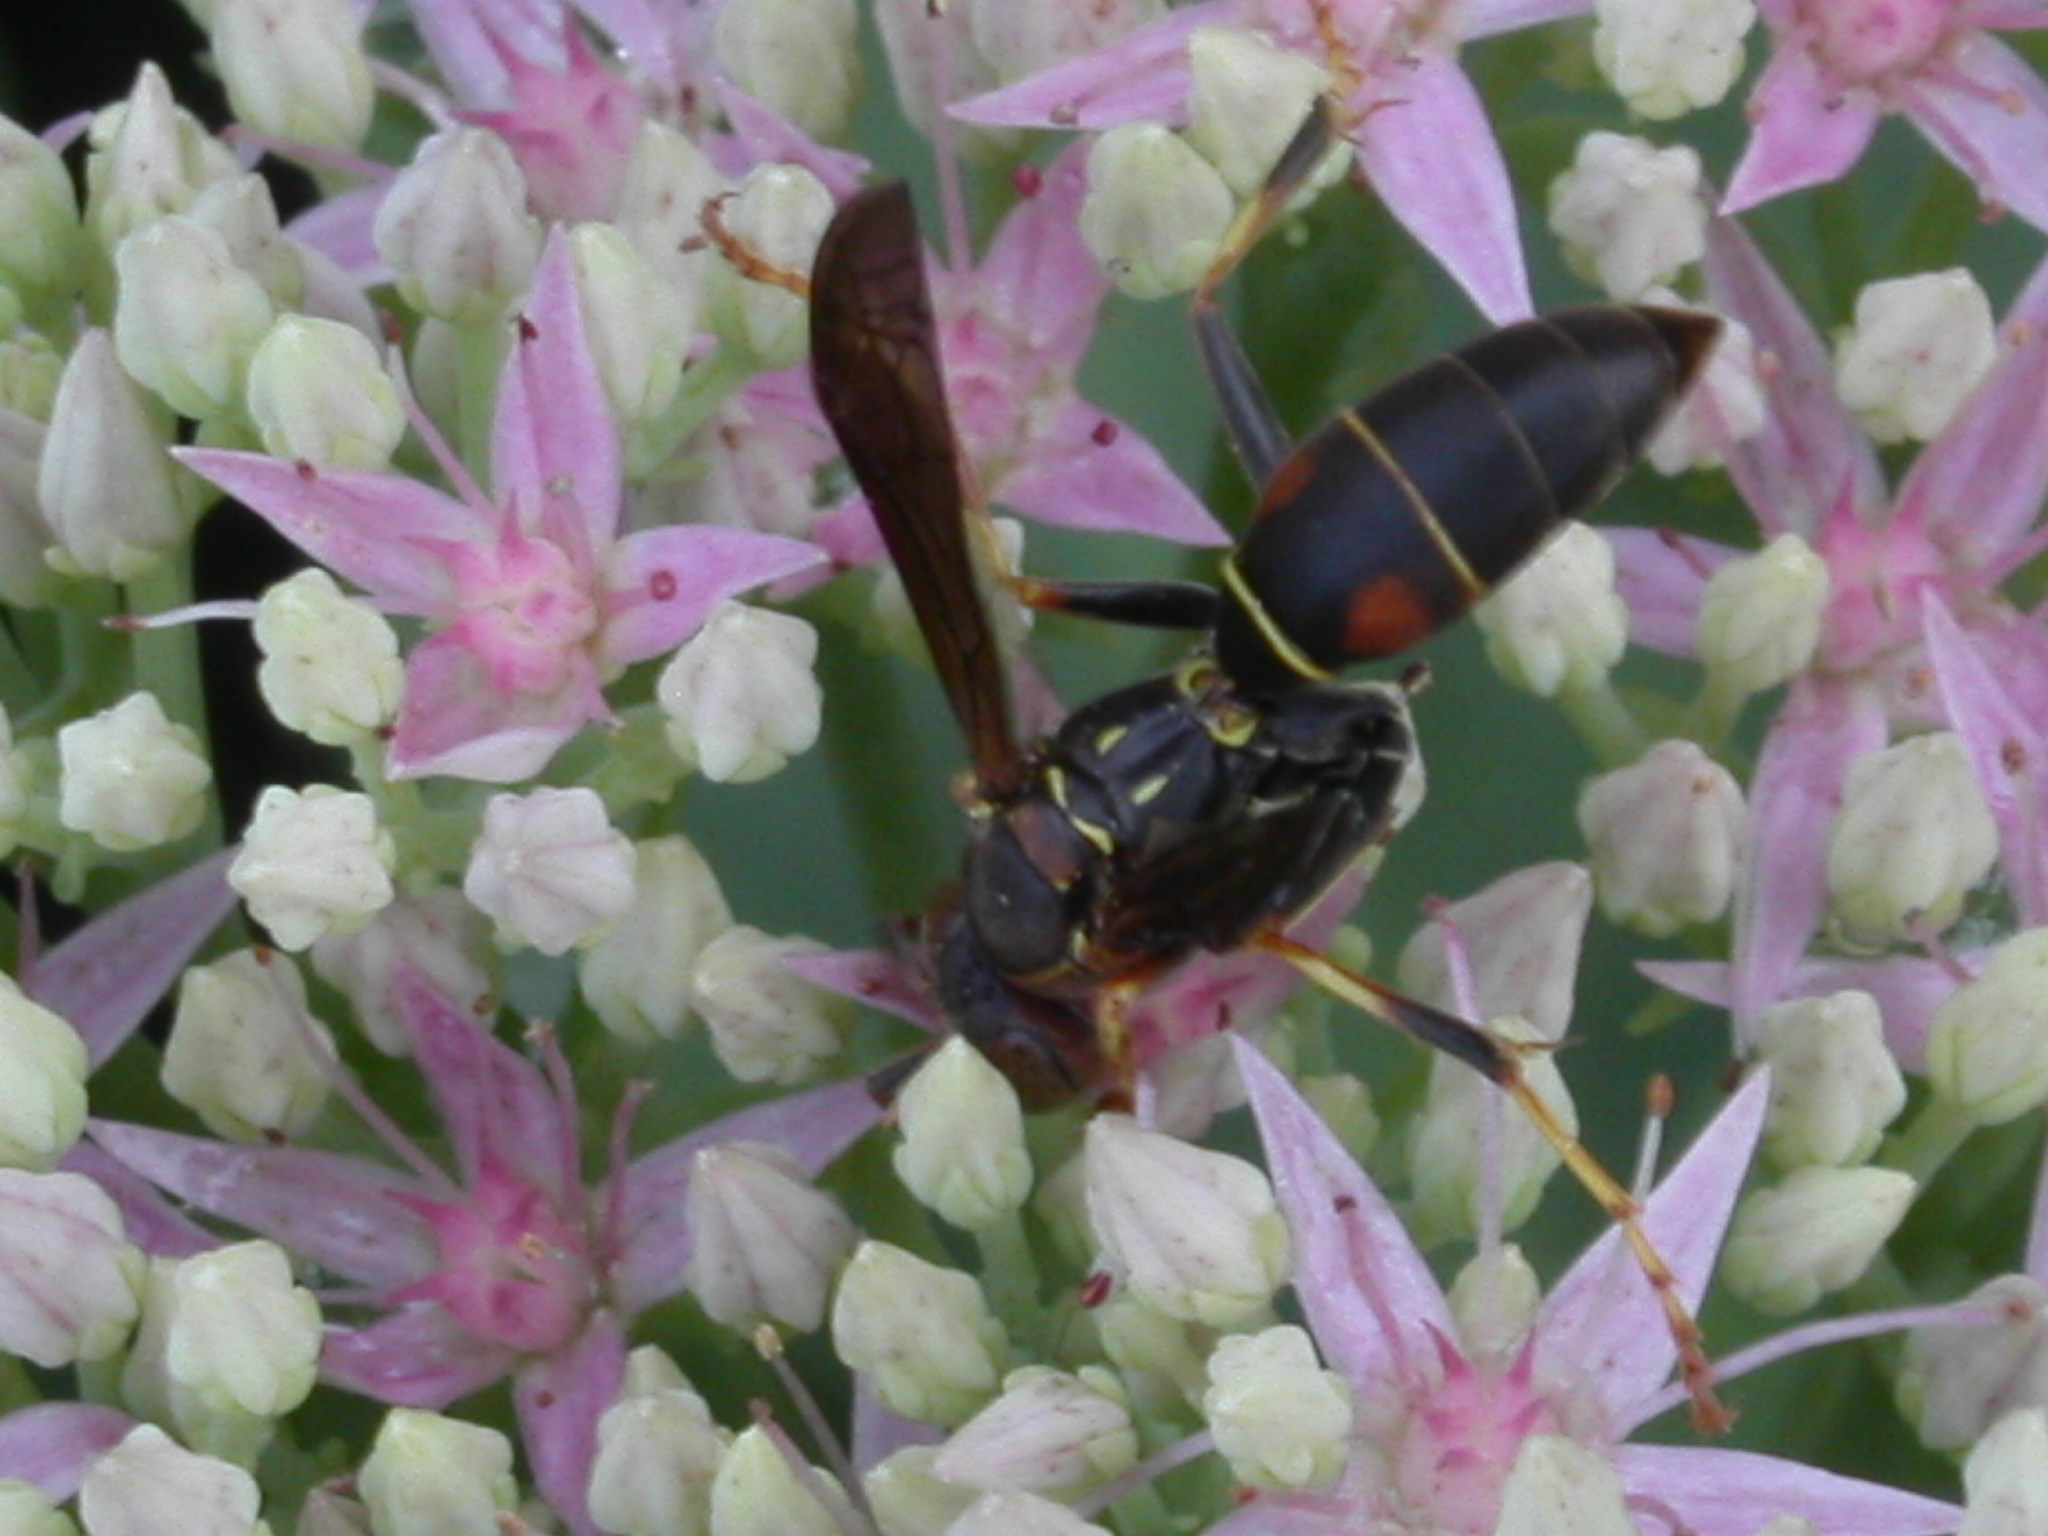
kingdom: Animalia
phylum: Arthropoda
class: Insecta
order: Hymenoptera
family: Eumenidae
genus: Polistes
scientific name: Polistes fuscatus
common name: Dark paper wasp
